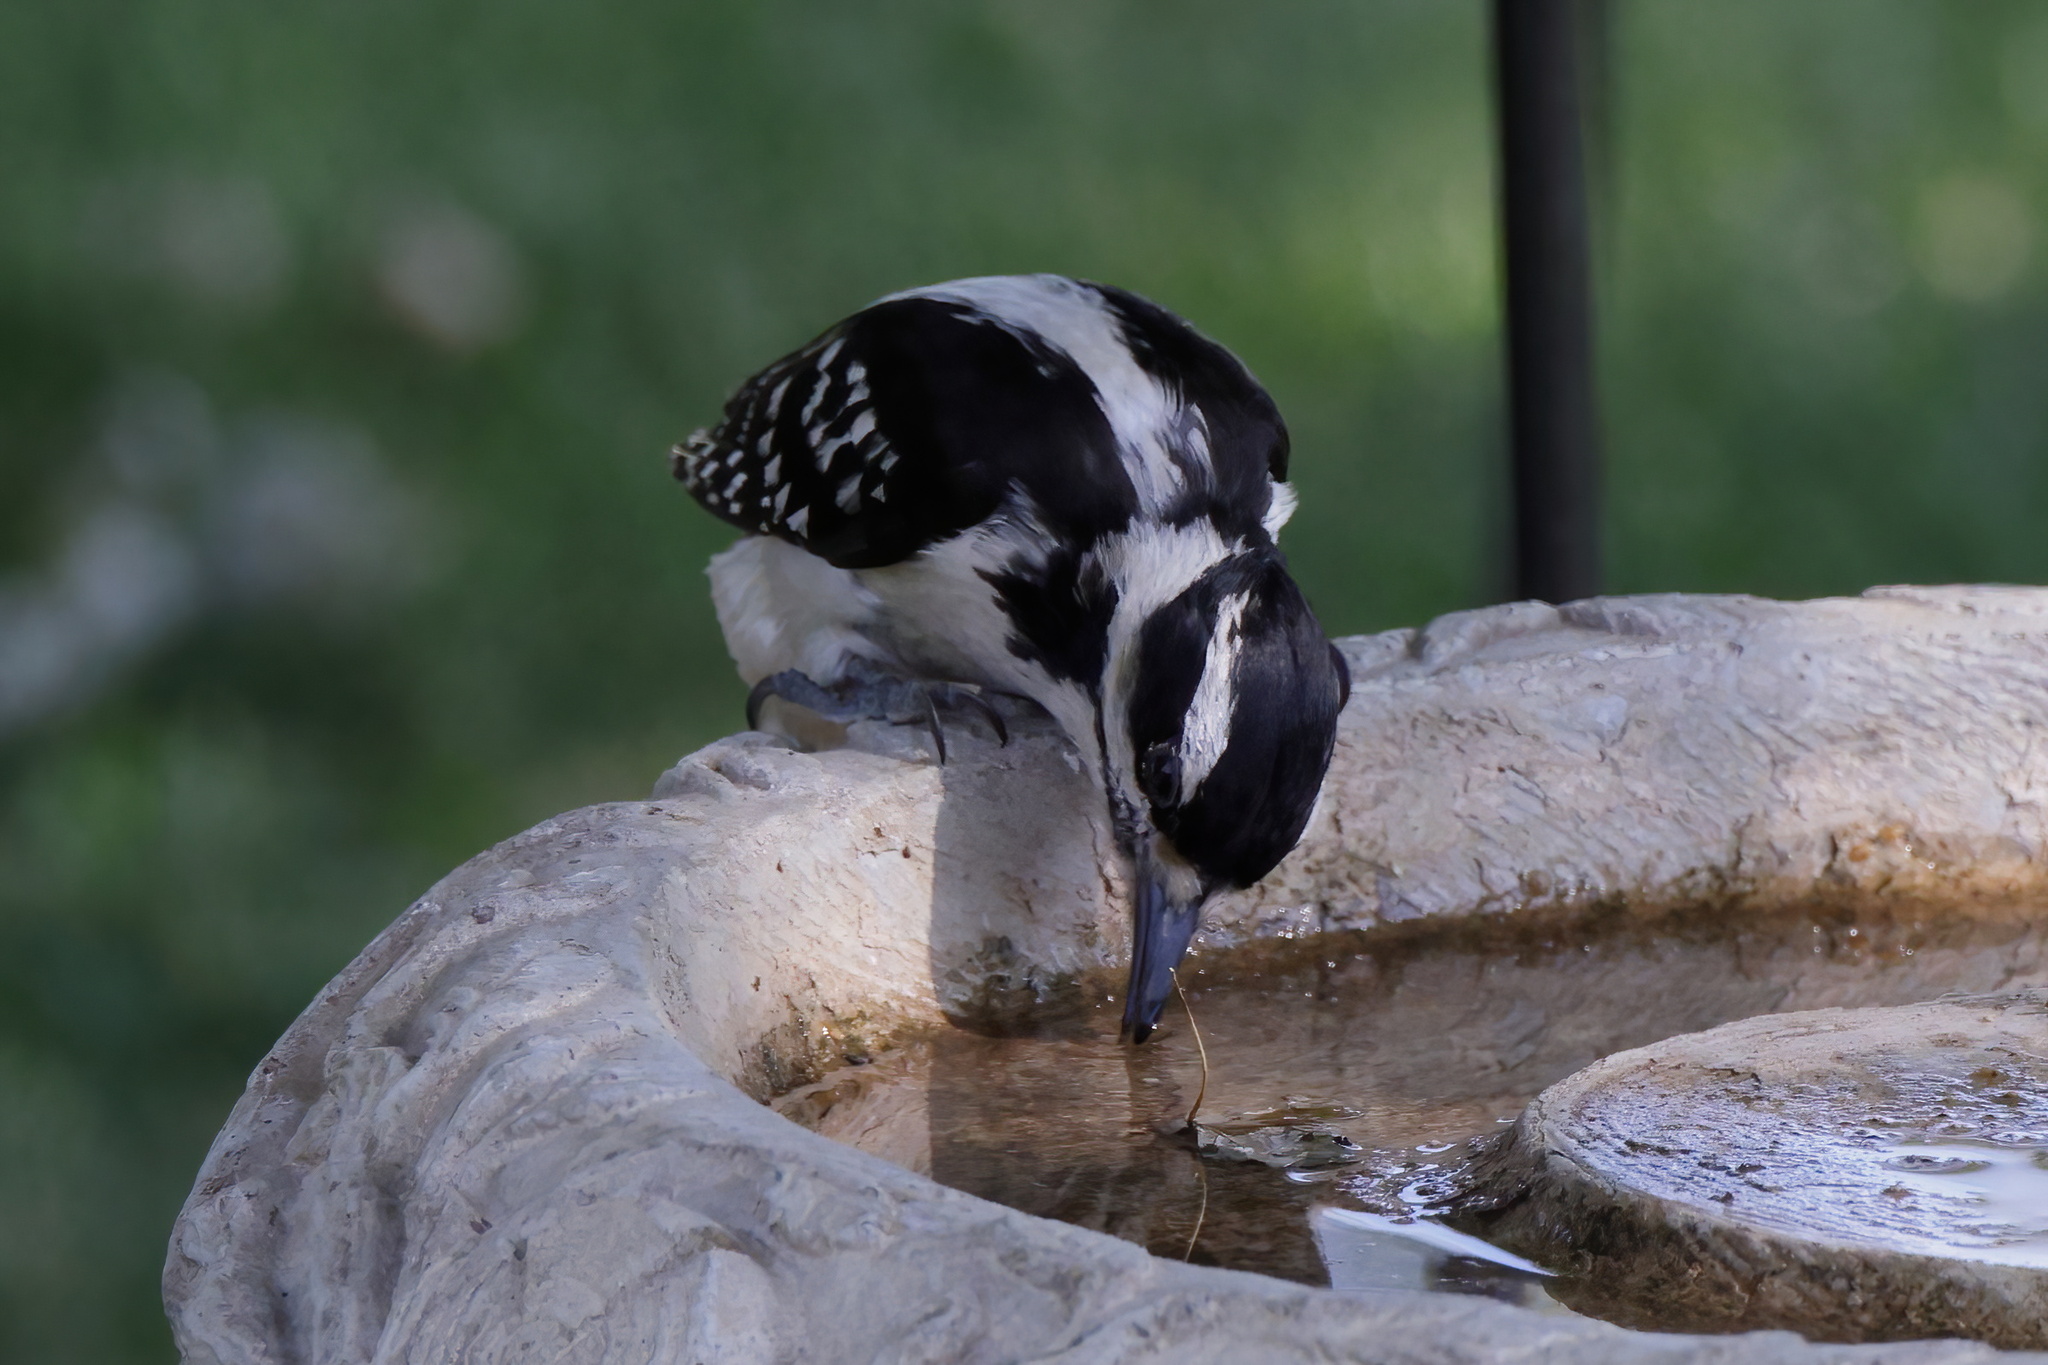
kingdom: Animalia
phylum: Chordata
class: Aves
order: Piciformes
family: Picidae
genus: Leuconotopicus
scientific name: Leuconotopicus villosus
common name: Hairy woodpecker
